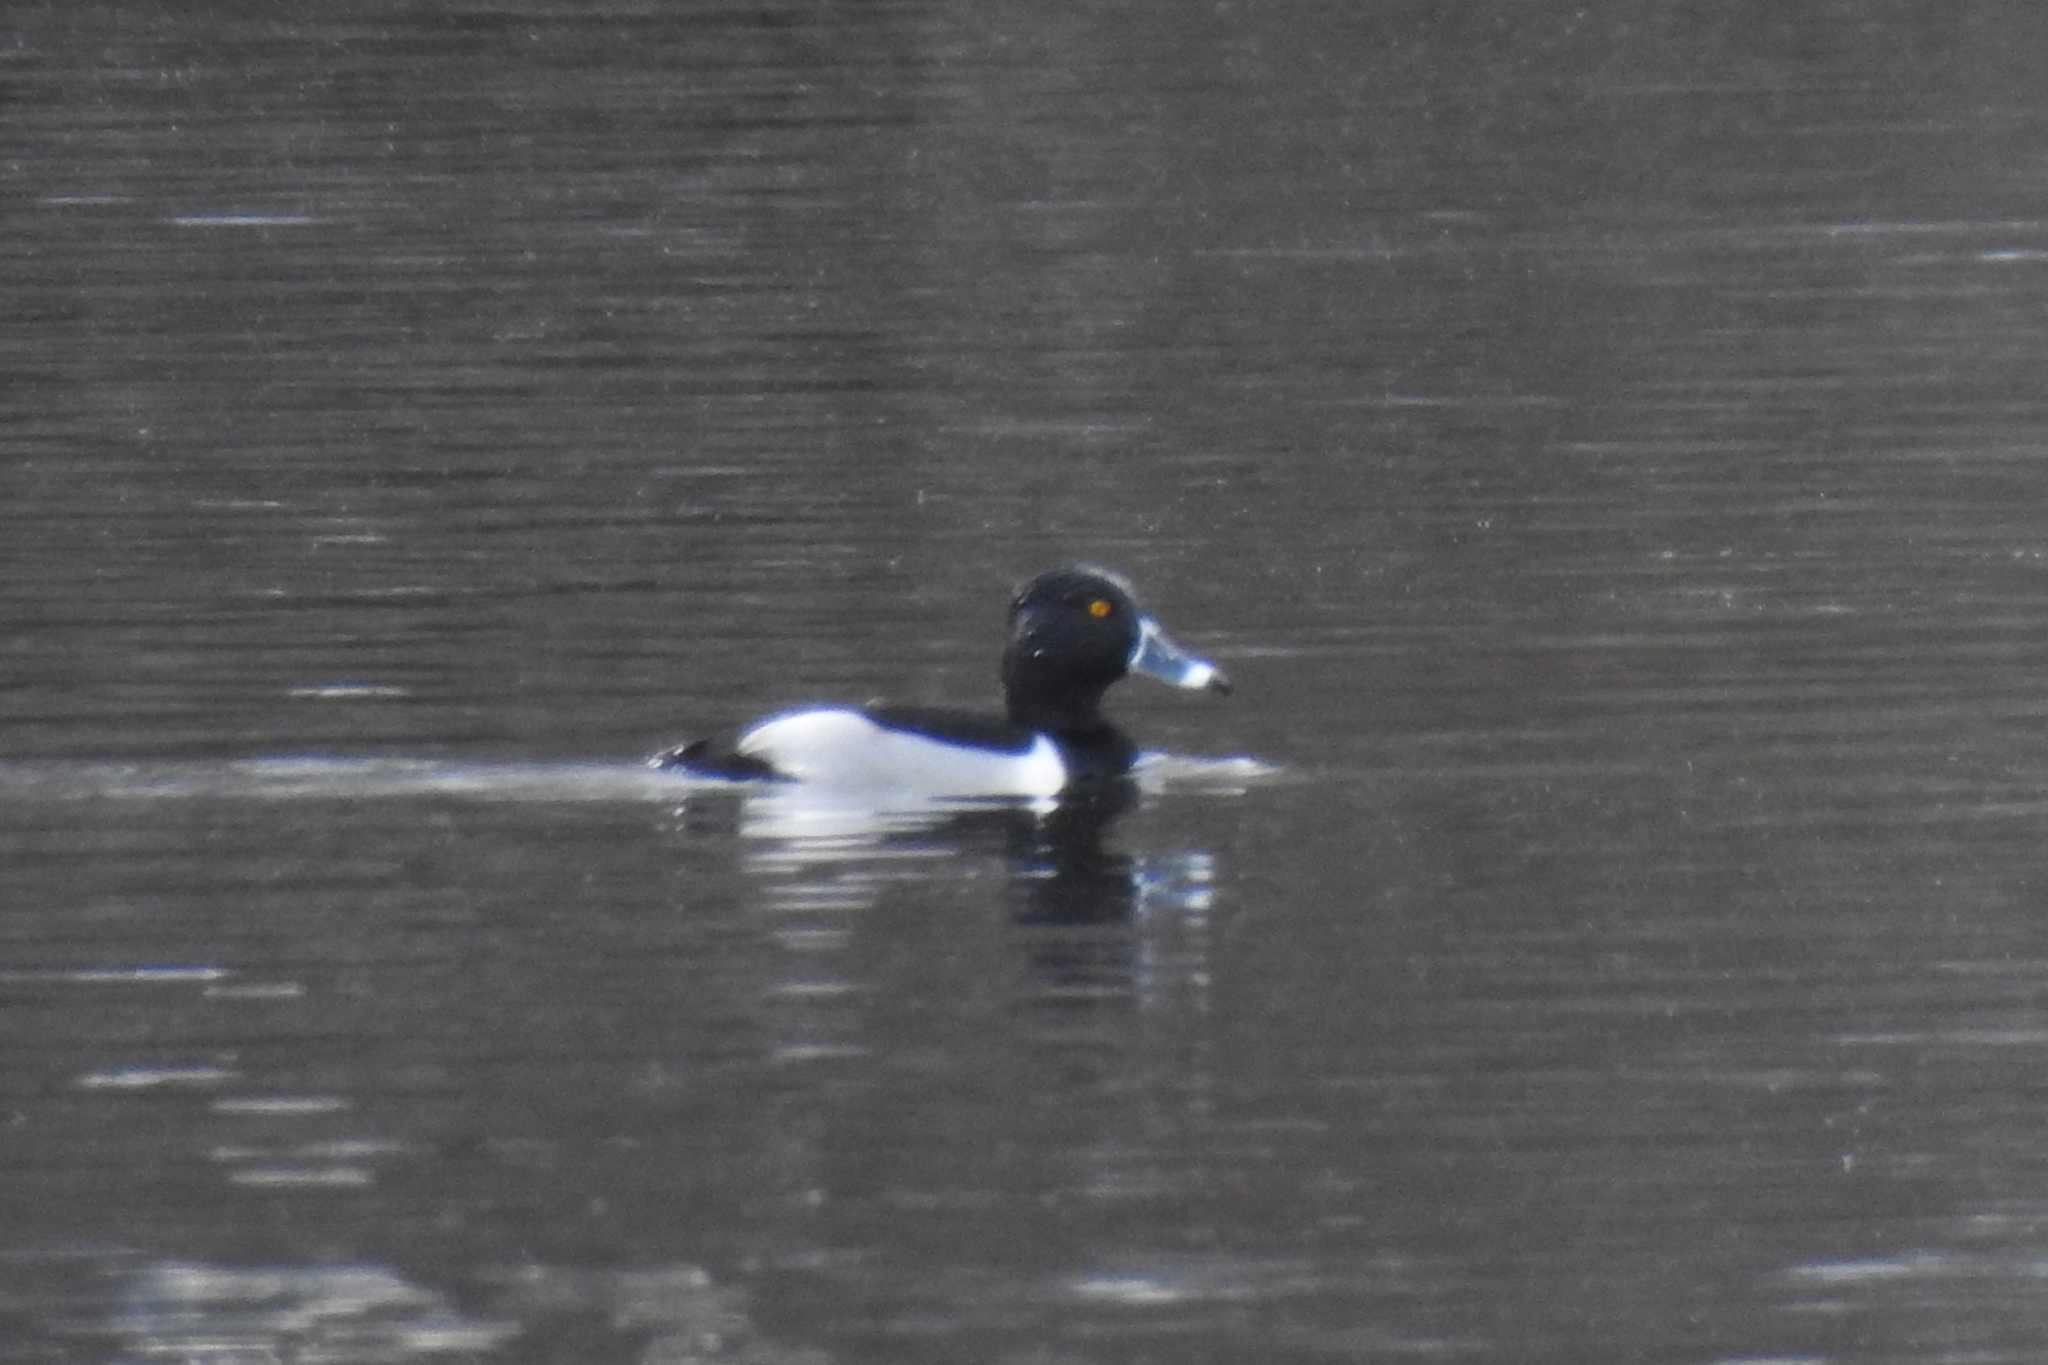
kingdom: Animalia
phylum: Chordata
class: Aves
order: Anseriformes
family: Anatidae
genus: Aythya
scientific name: Aythya collaris
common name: Ring-necked duck
